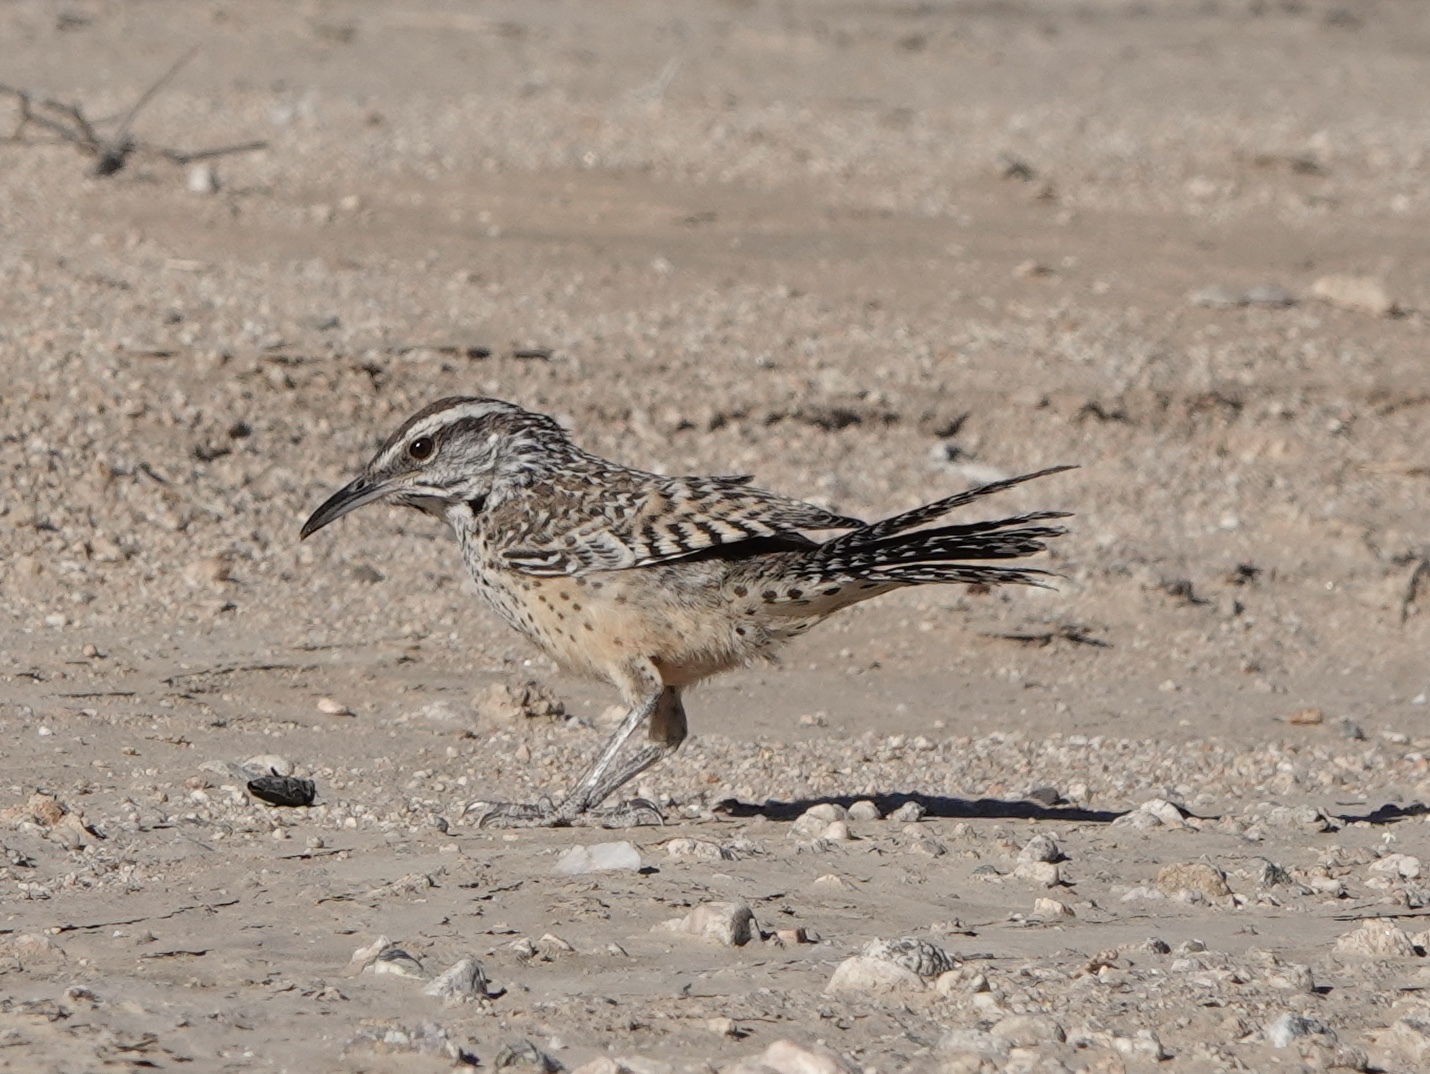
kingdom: Animalia
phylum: Chordata
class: Aves
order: Passeriformes
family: Troglodytidae
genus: Campylorhynchus
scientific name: Campylorhynchus brunneicapillus
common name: Cactus wren
